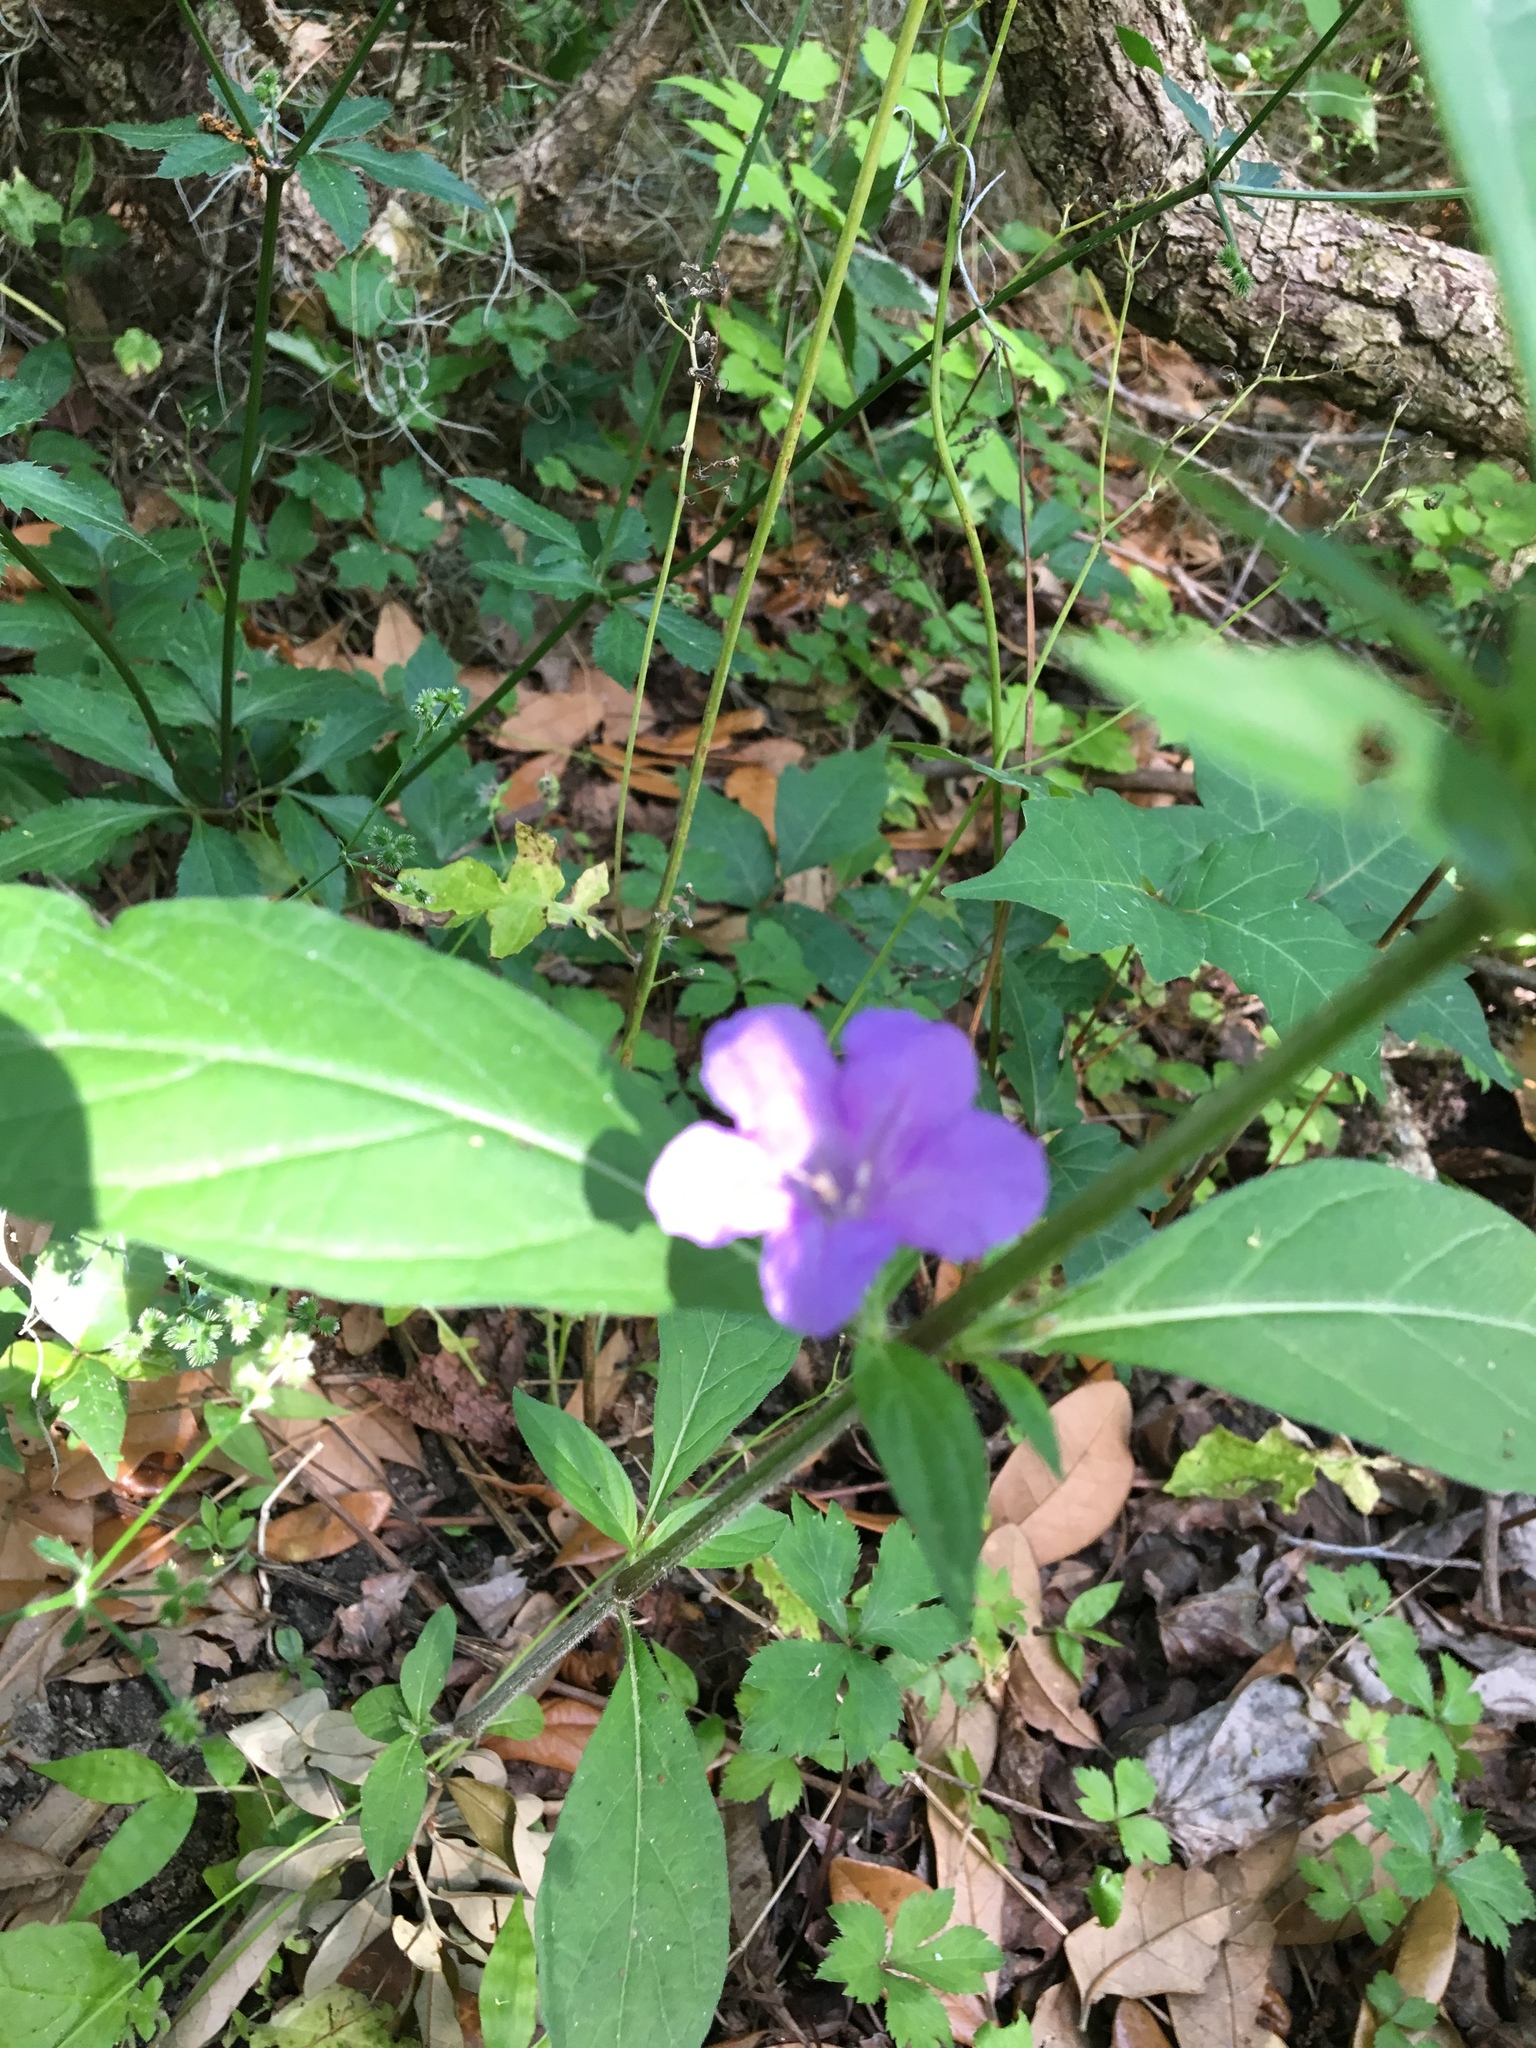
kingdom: Plantae
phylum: Tracheophyta
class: Magnoliopsida
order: Lamiales
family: Acanthaceae
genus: Ruellia
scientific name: Ruellia caroliniensis
